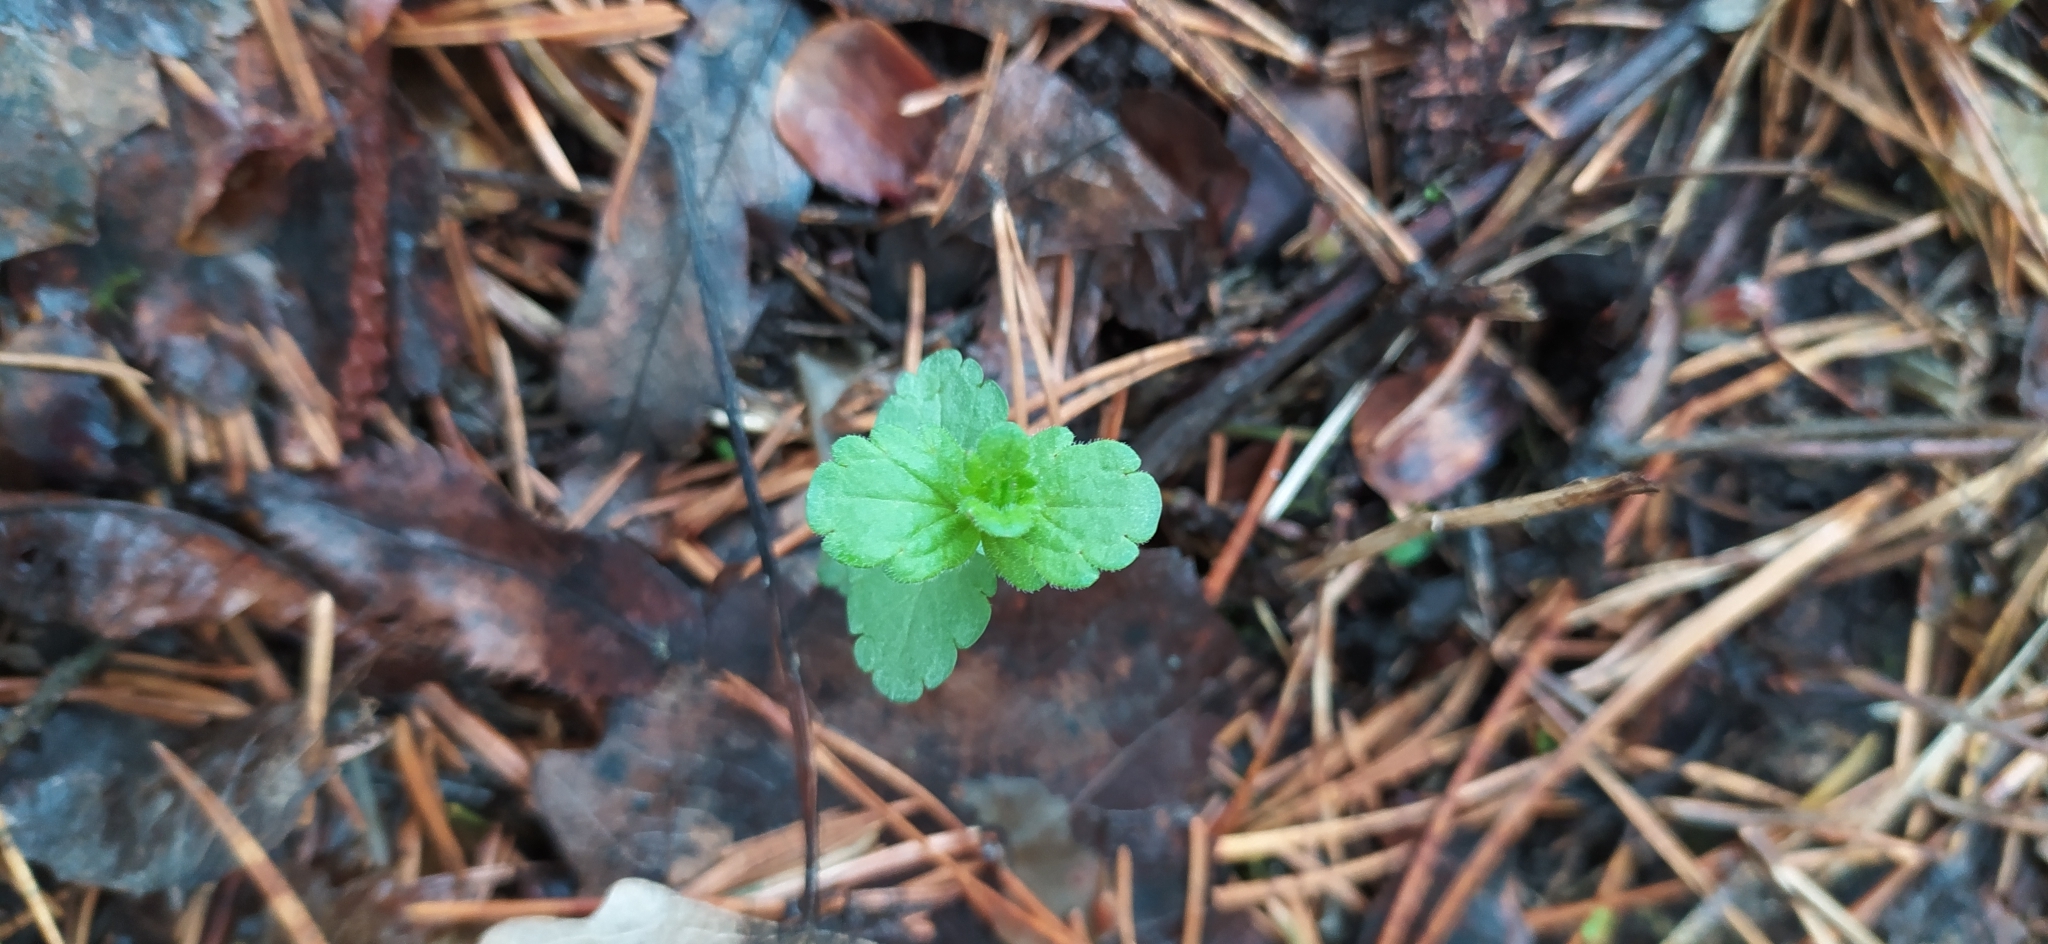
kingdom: Plantae
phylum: Tracheophyta
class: Magnoliopsida
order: Lamiales
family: Plantaginaceae
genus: Veronica
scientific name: Veronica chamaedrys
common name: Germander speedwell
